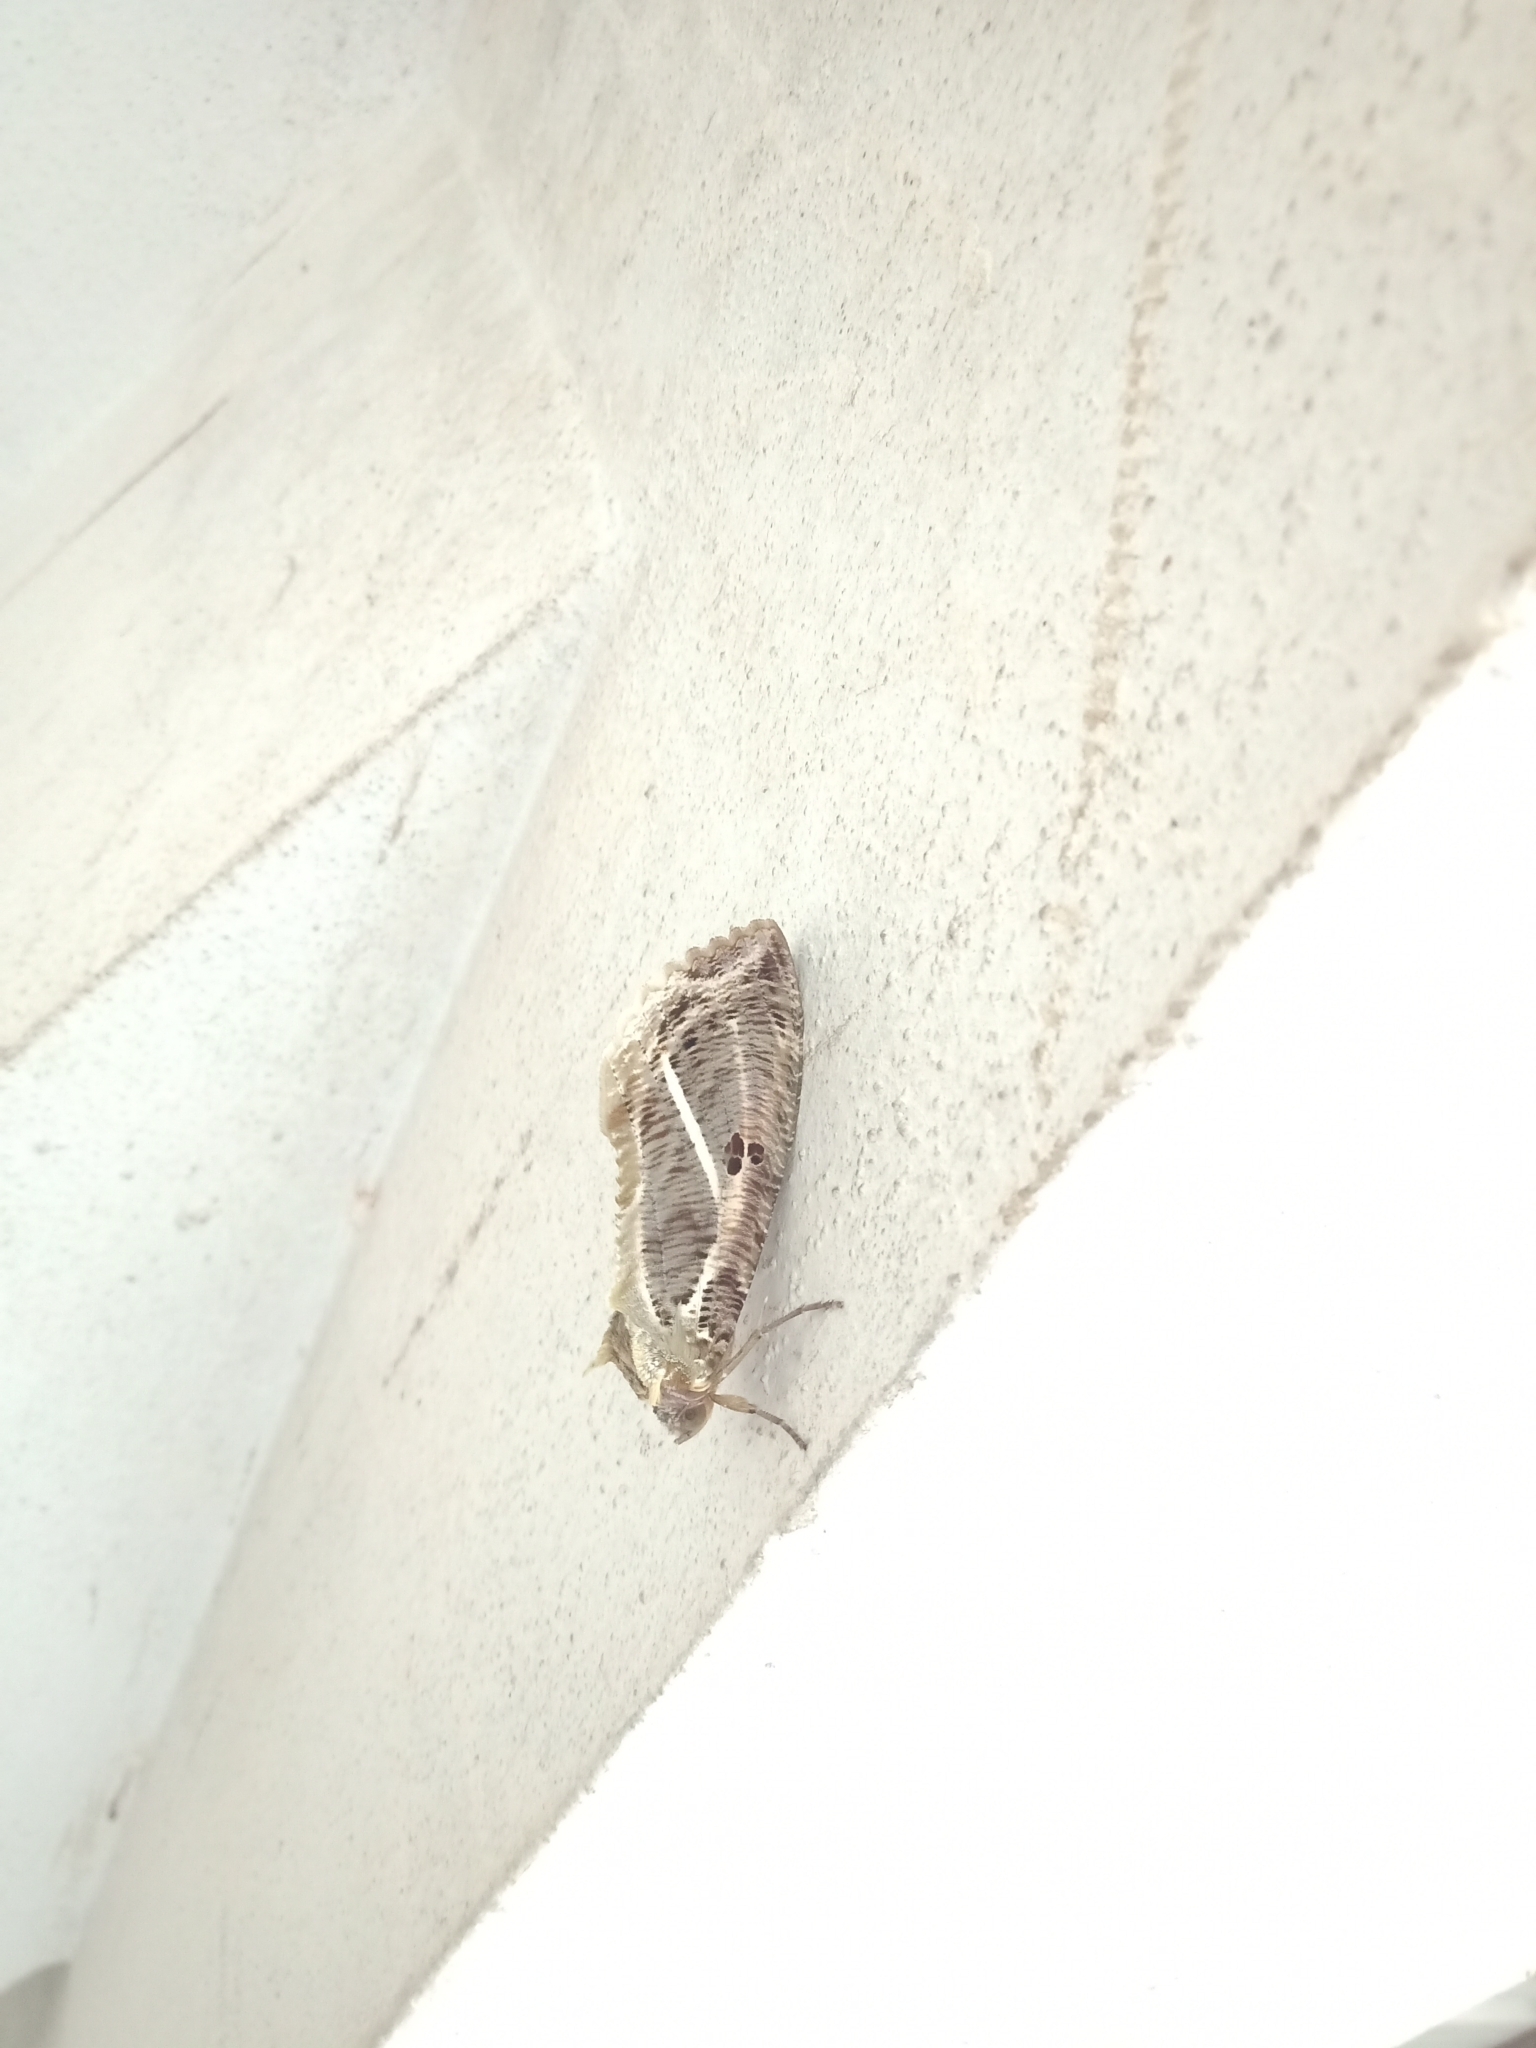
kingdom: Animalia
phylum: Arthropoda
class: Insecta
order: Lepidoptera
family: Erebidae
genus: Eudocima
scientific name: Eudocima materna
